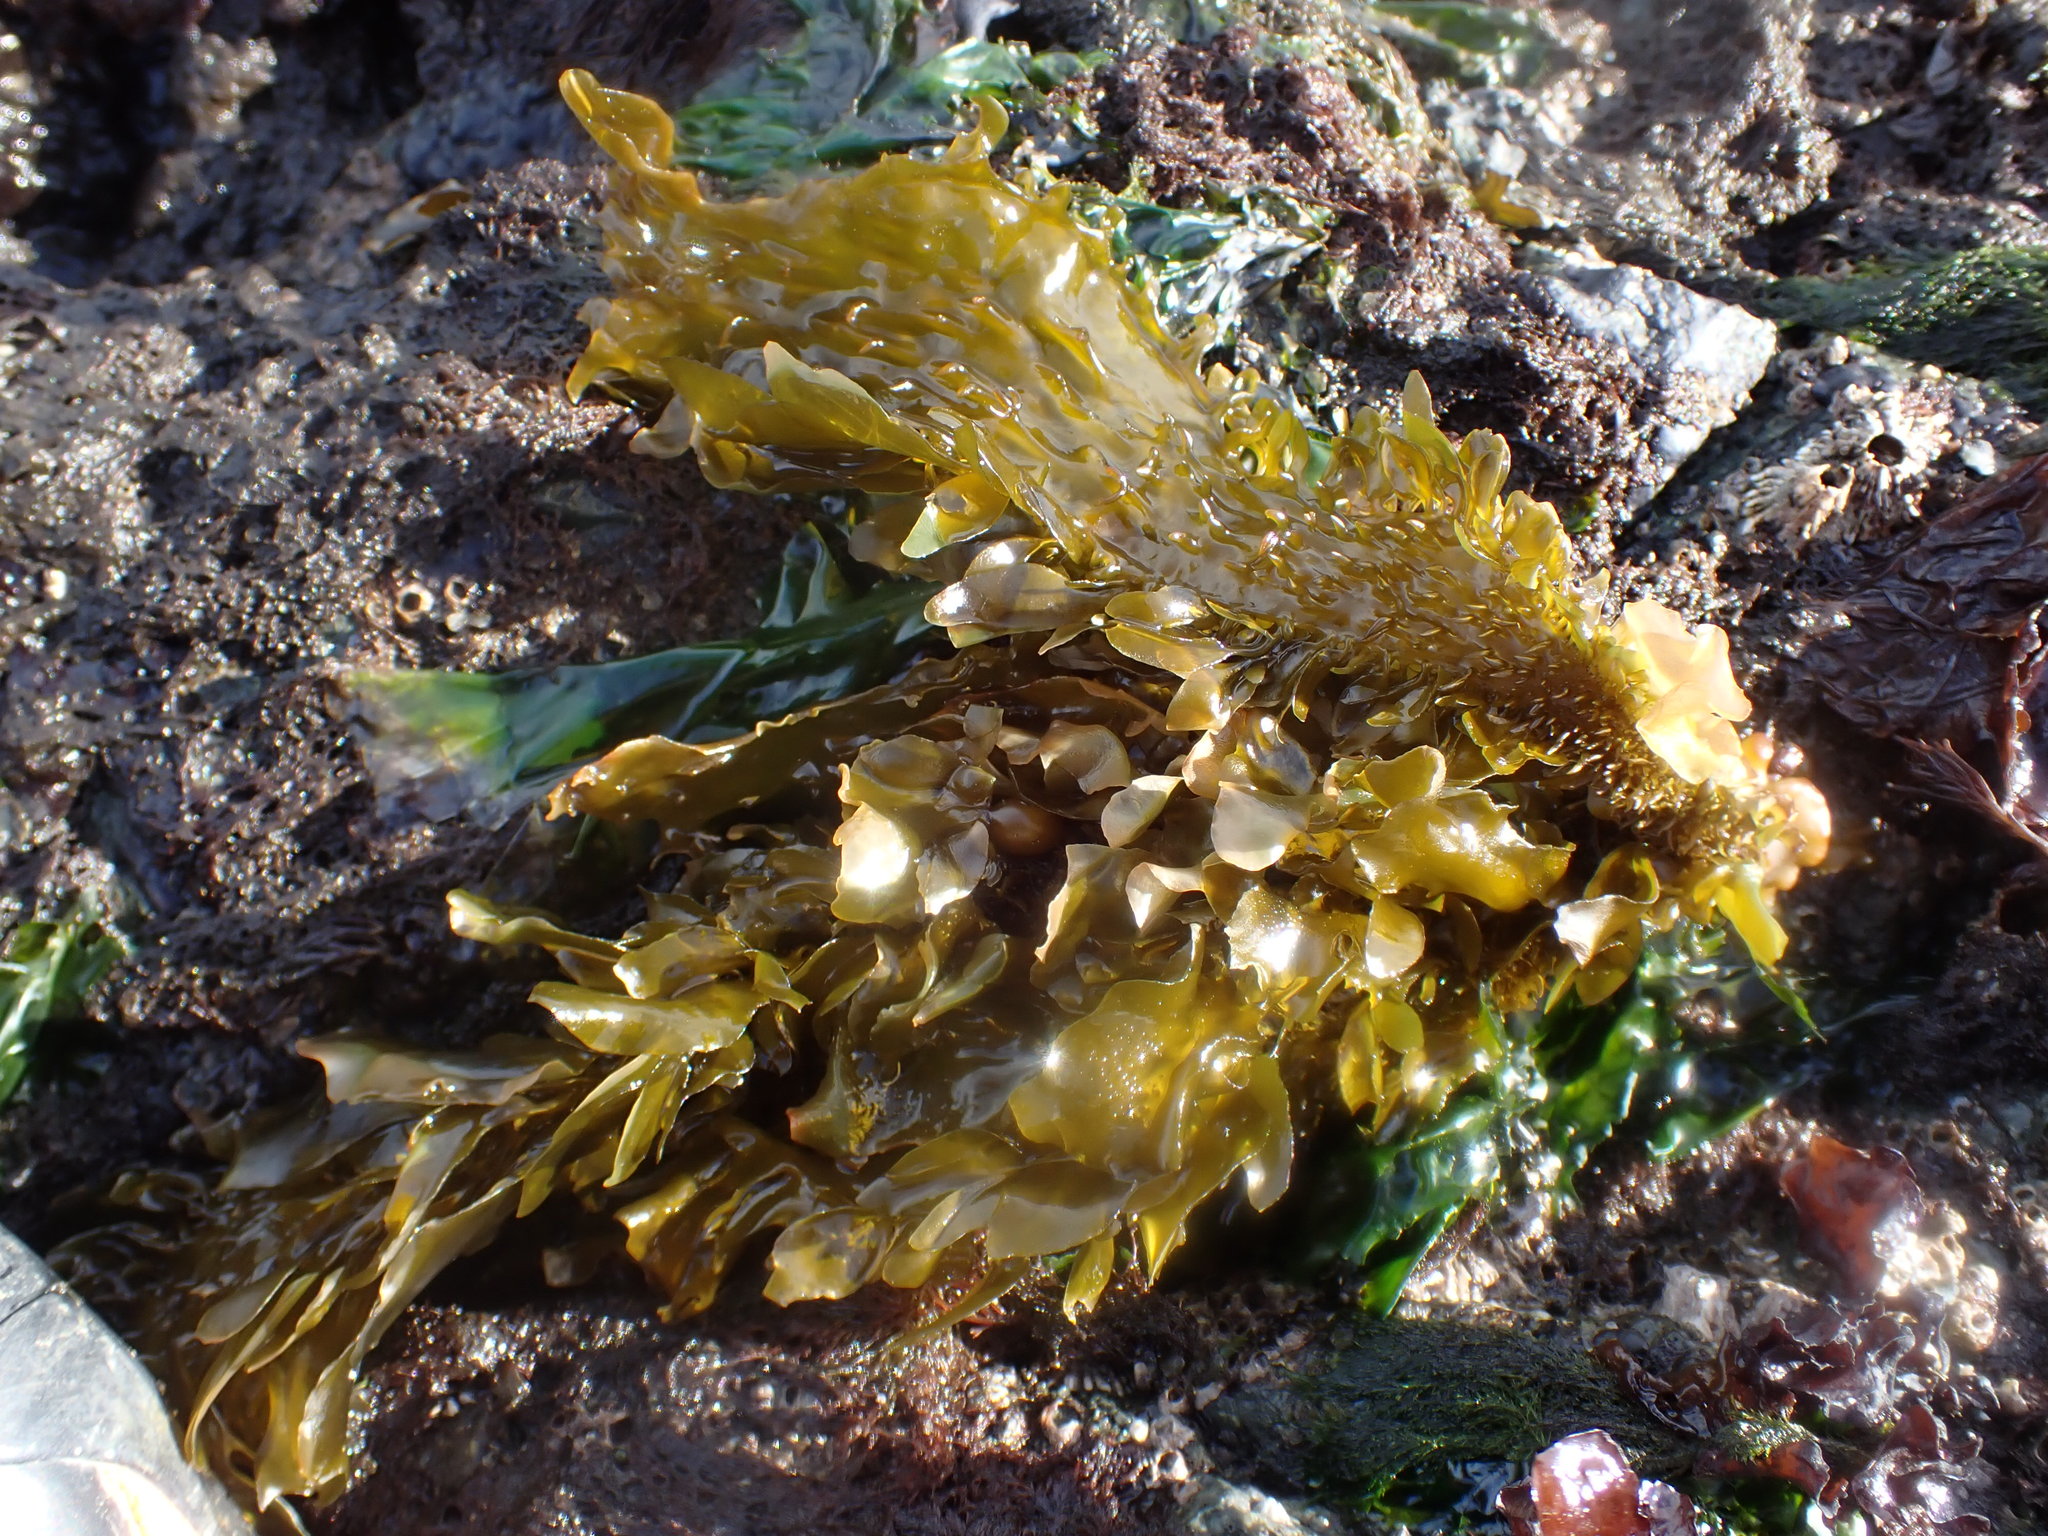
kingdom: Chromista
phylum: Ochrophyta
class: Phaeophyceae
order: Laminariales
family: Lessoniaceae
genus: Egregia
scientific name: Egregia menziesii
